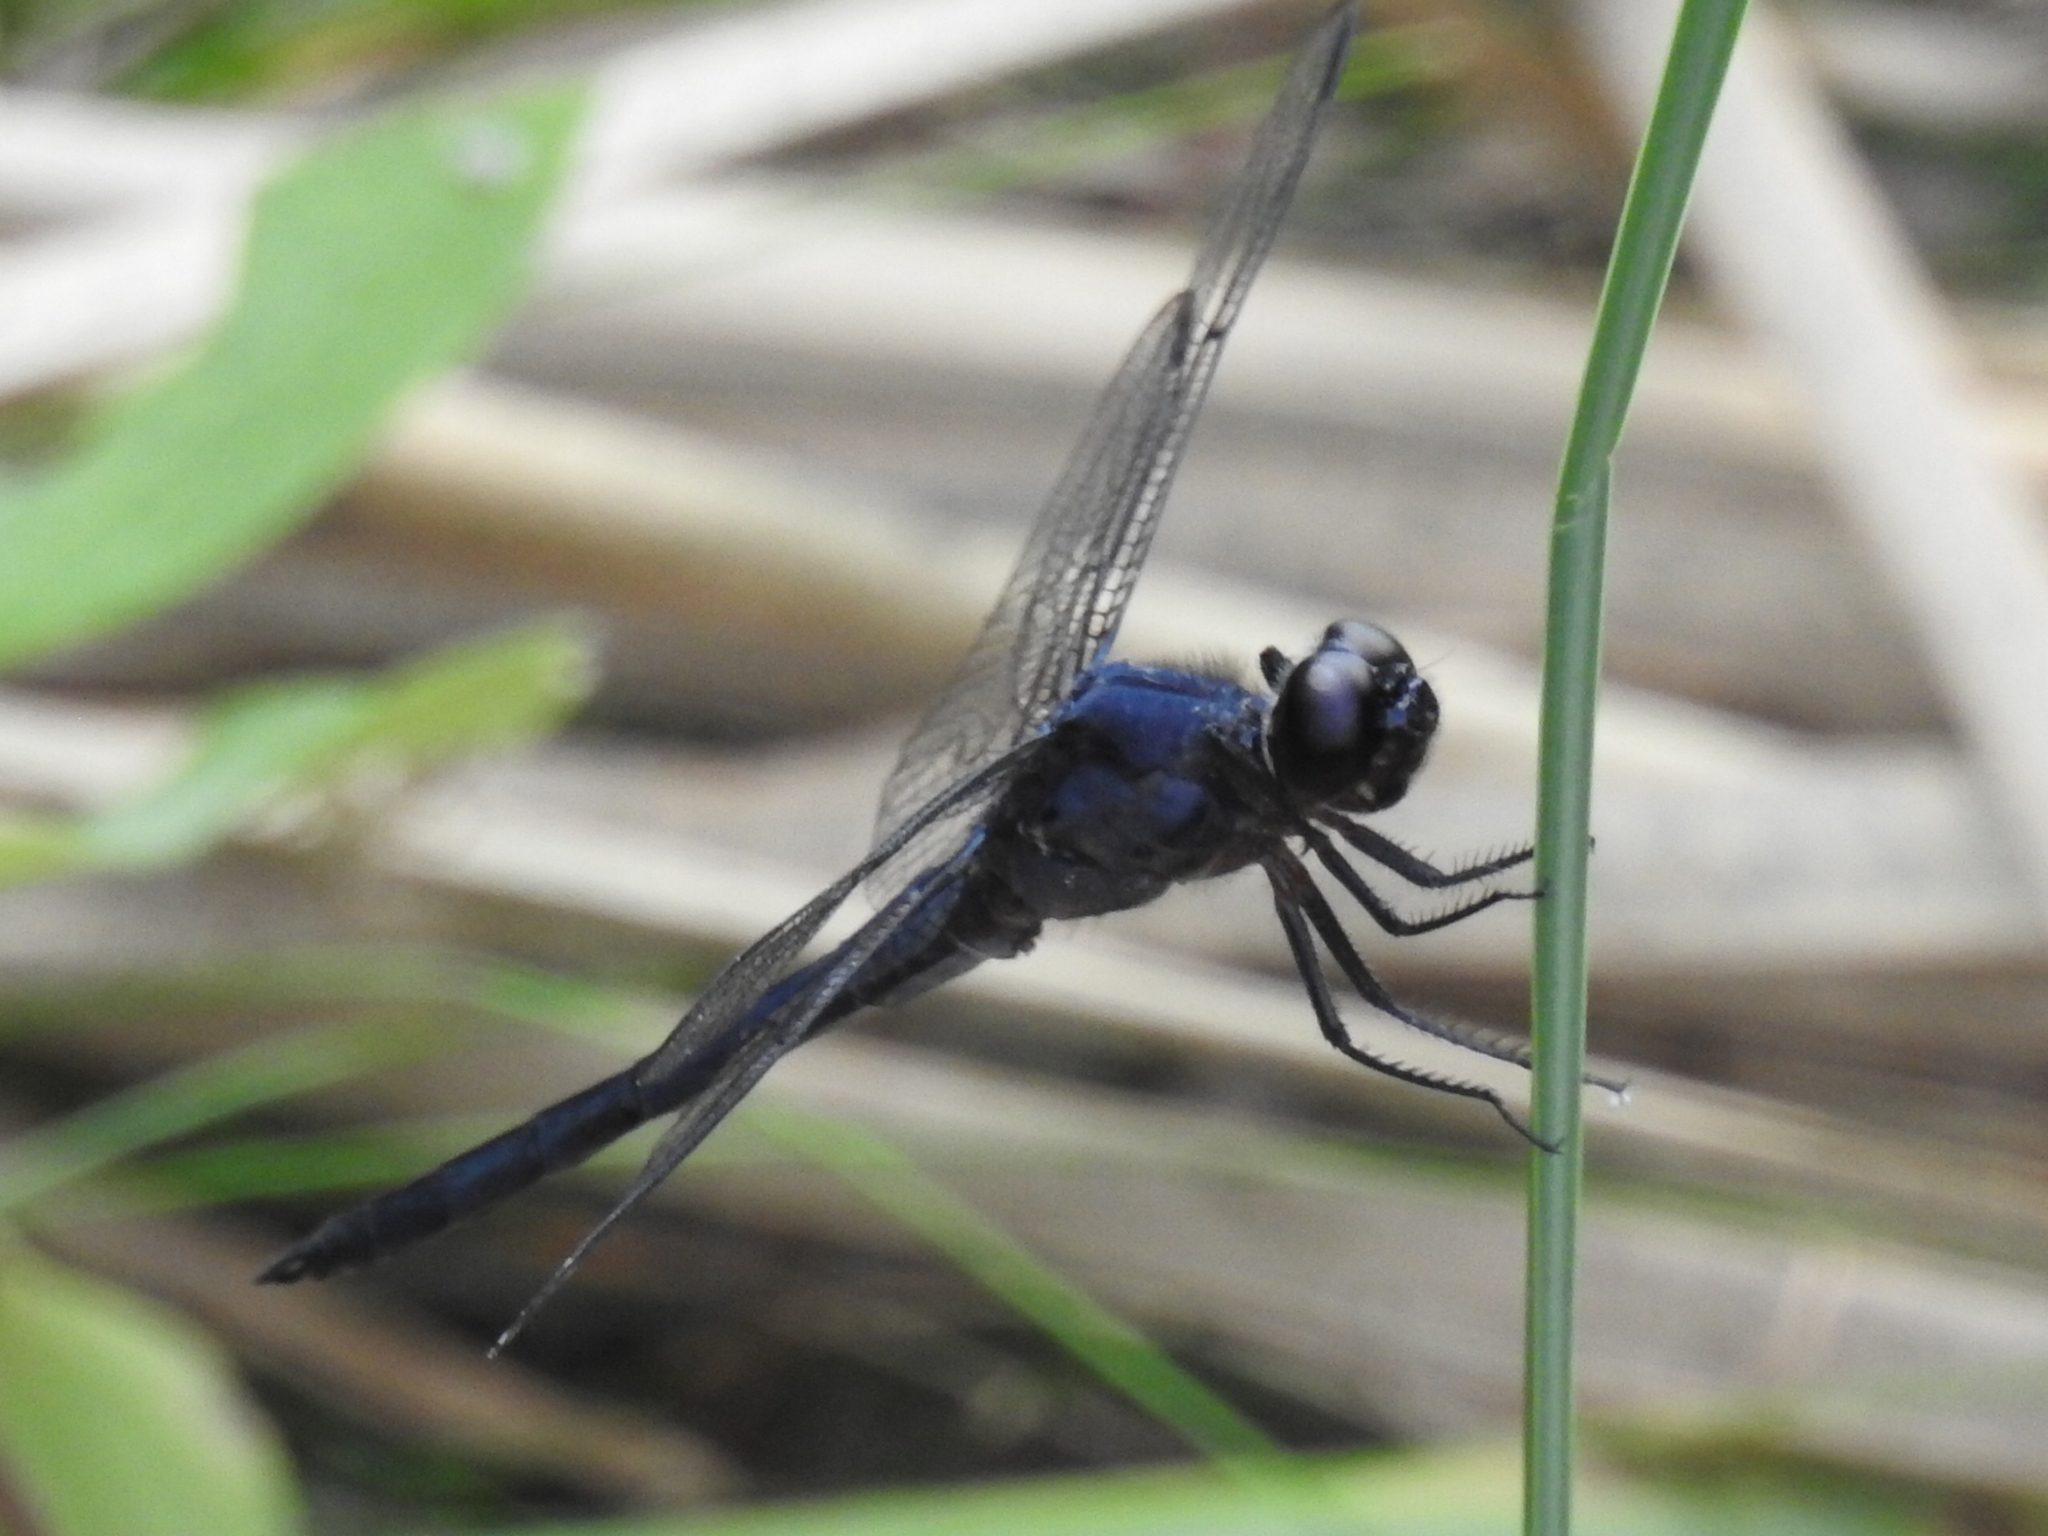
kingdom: Animalia
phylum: Arthropoda
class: Insecta
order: Odonata
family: Libellulidae
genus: Libellula
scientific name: Libellula incesta
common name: Slaty skimmer
